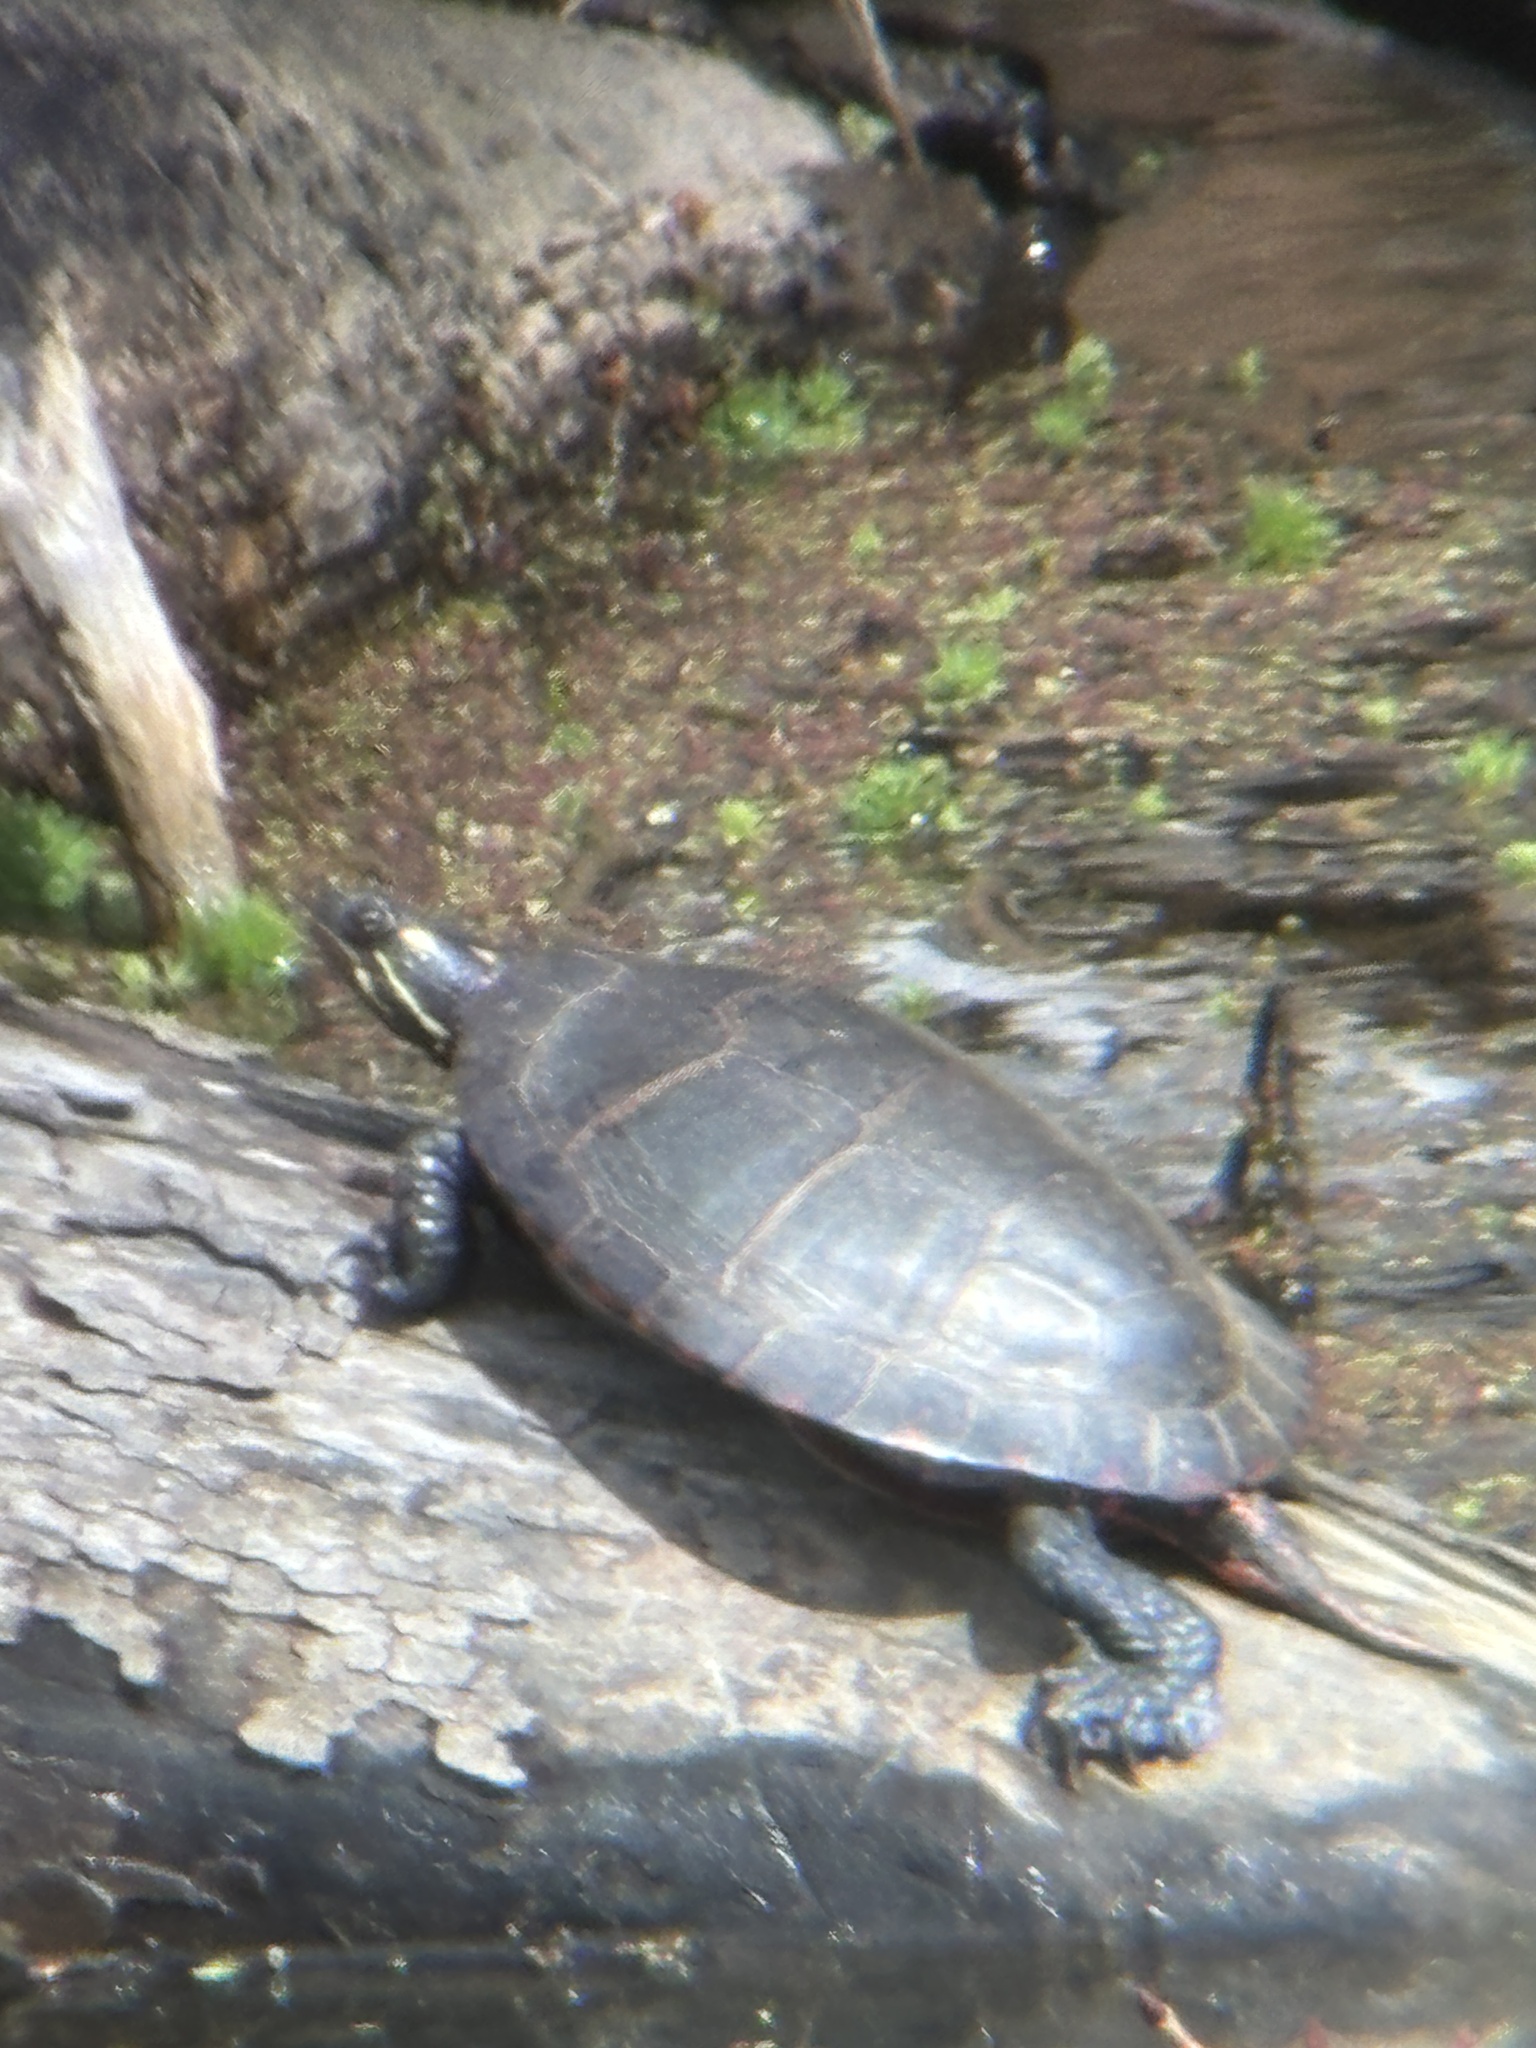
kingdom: Animalia
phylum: Chordata
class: Testudines
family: Emydidae
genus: Chrysemys
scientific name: Chrysemys picta
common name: Painted turtle
